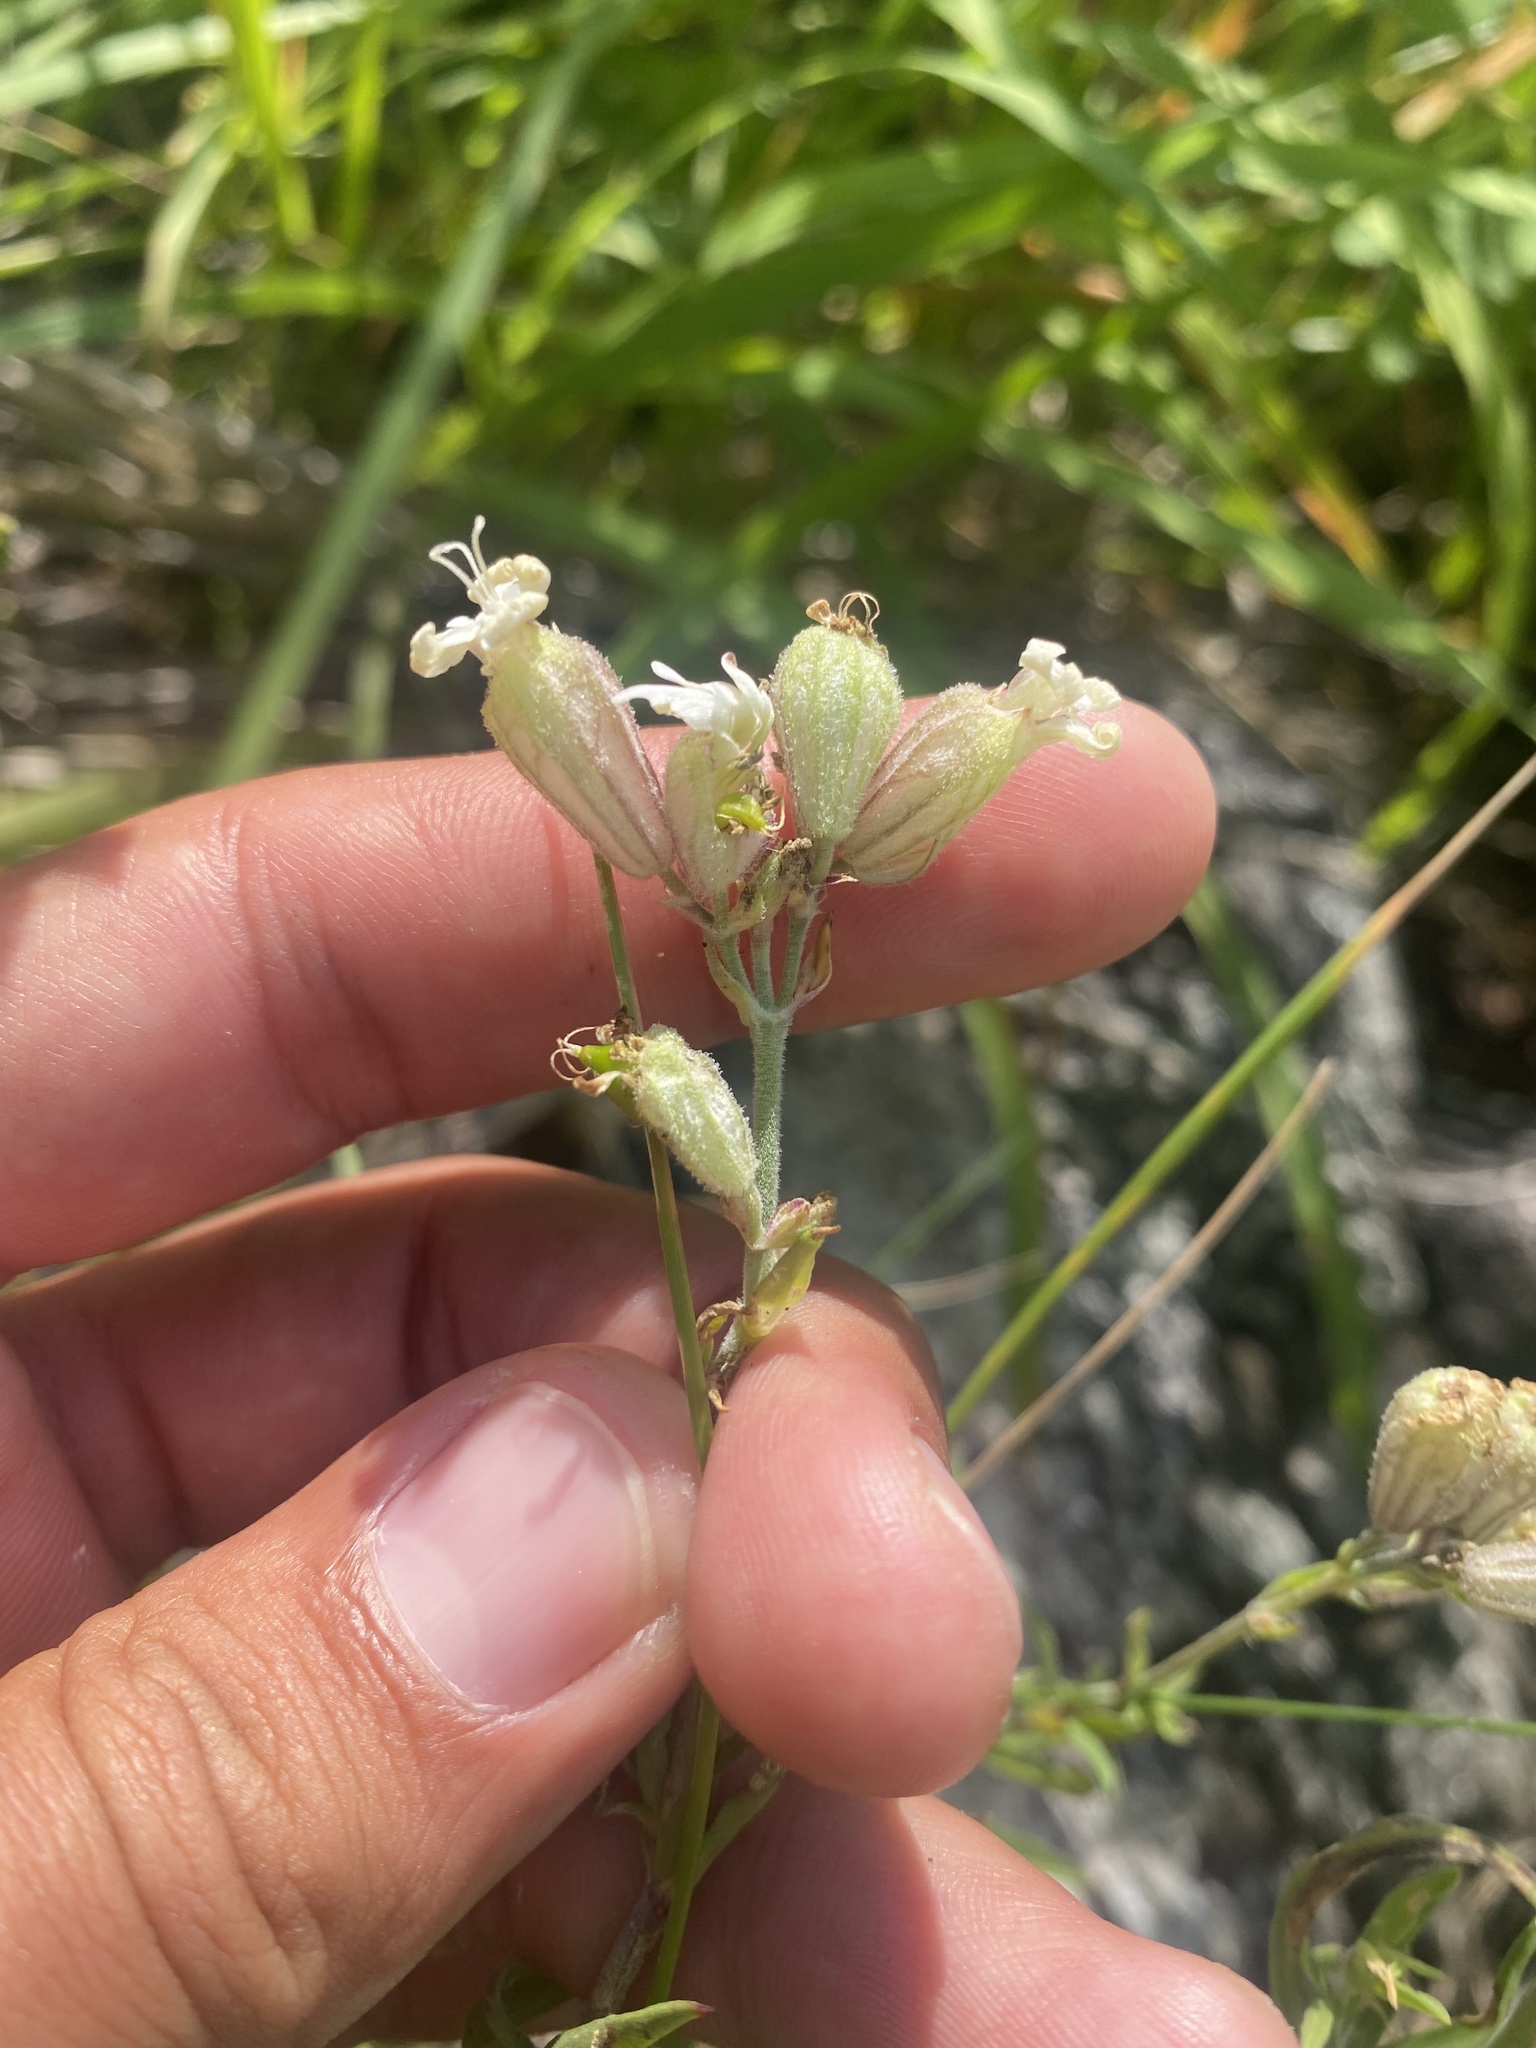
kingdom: Plantae
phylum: Tracheophyta
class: Magnoliopsida
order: Caryophyllales
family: Caryophyllaceae
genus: Silene
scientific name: Silene amoena
